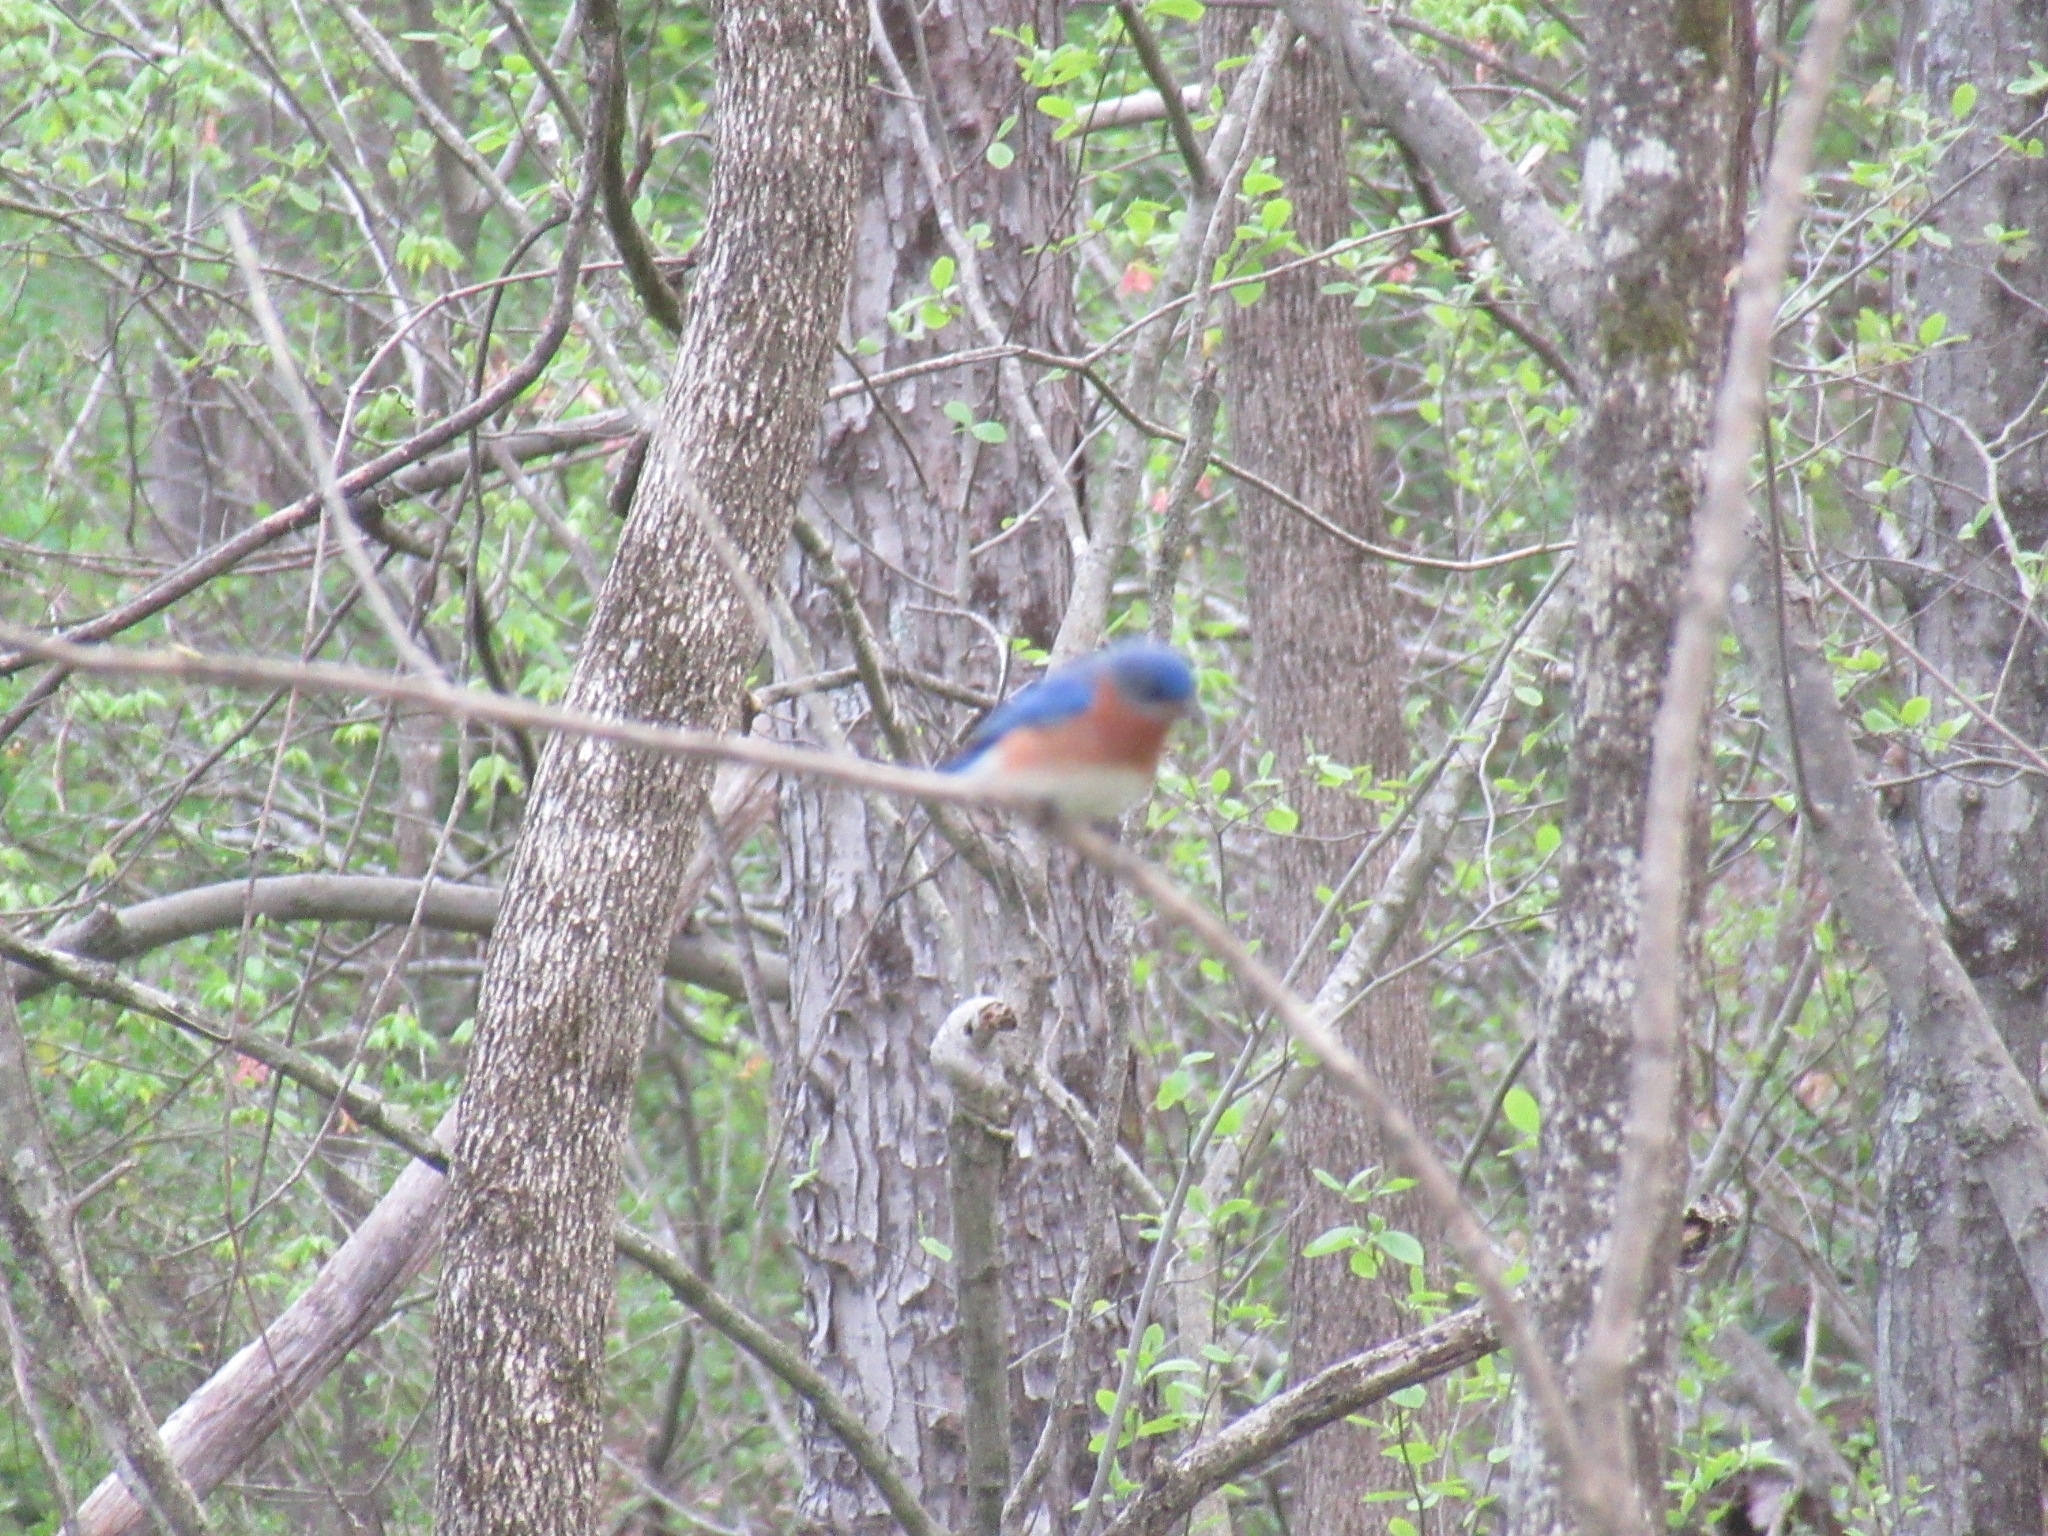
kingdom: Animalia
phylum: Chordata
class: Aves
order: Passeriformes
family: Turdidae
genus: Sialia
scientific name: Sialia sialis
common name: Eastern bluebird
